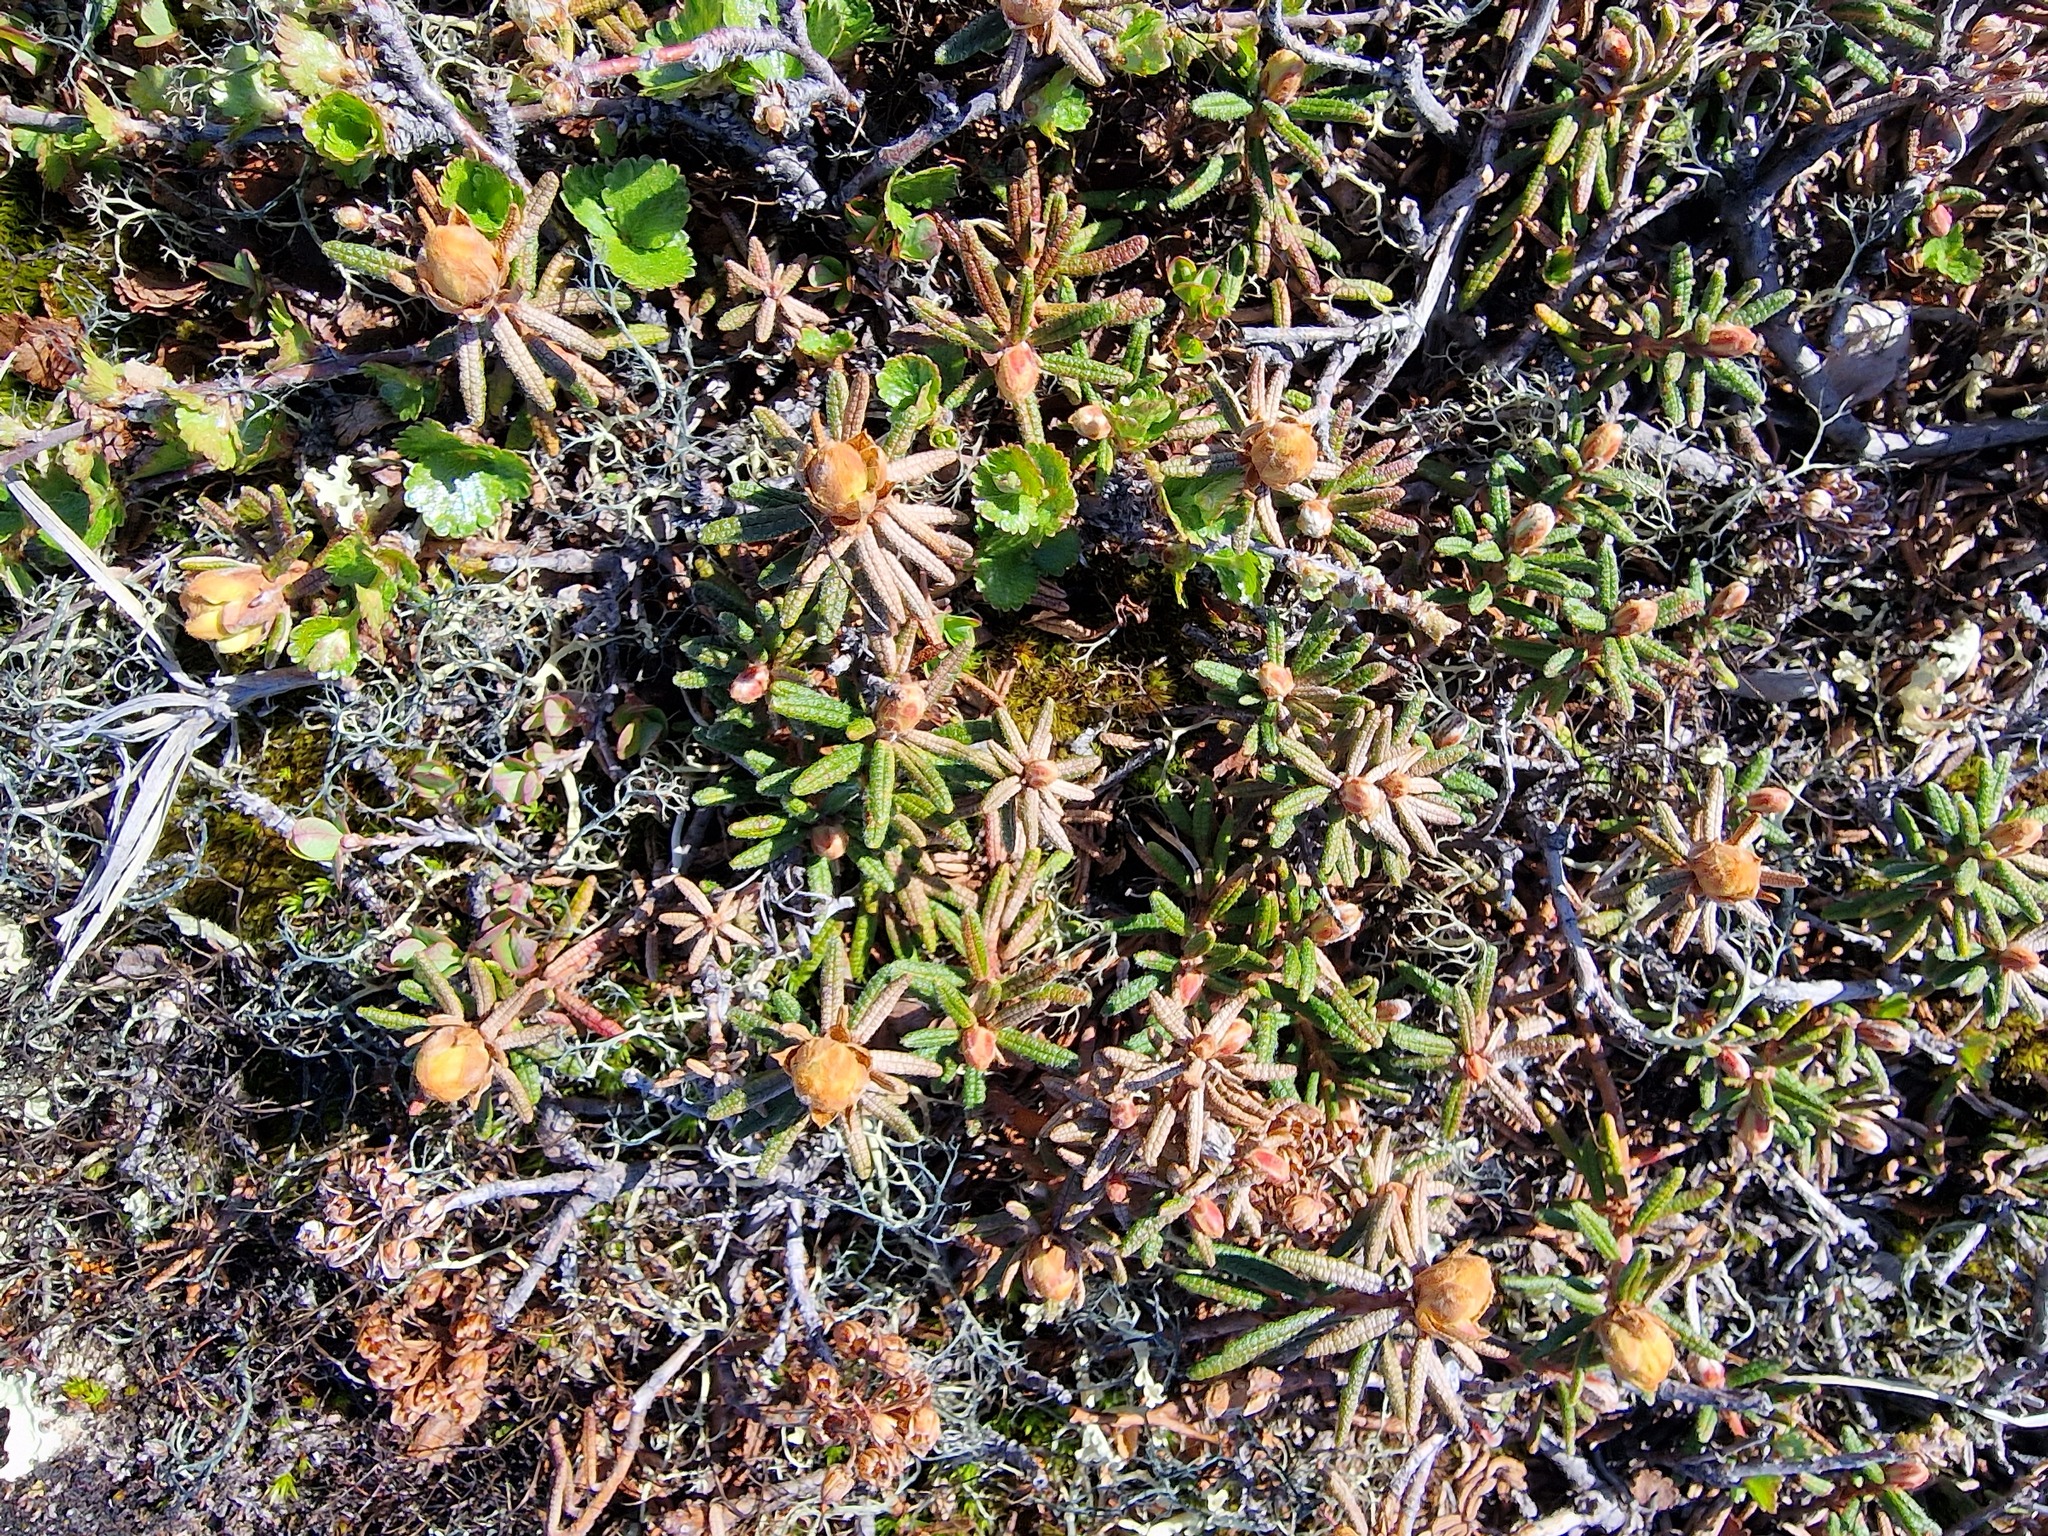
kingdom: Plantae
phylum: Tracheophyta
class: Magnoliopsida
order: Ericales
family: Ericaceae
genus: Rhododendron
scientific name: Rhododendron tomentosum
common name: Marsh labrador tea
